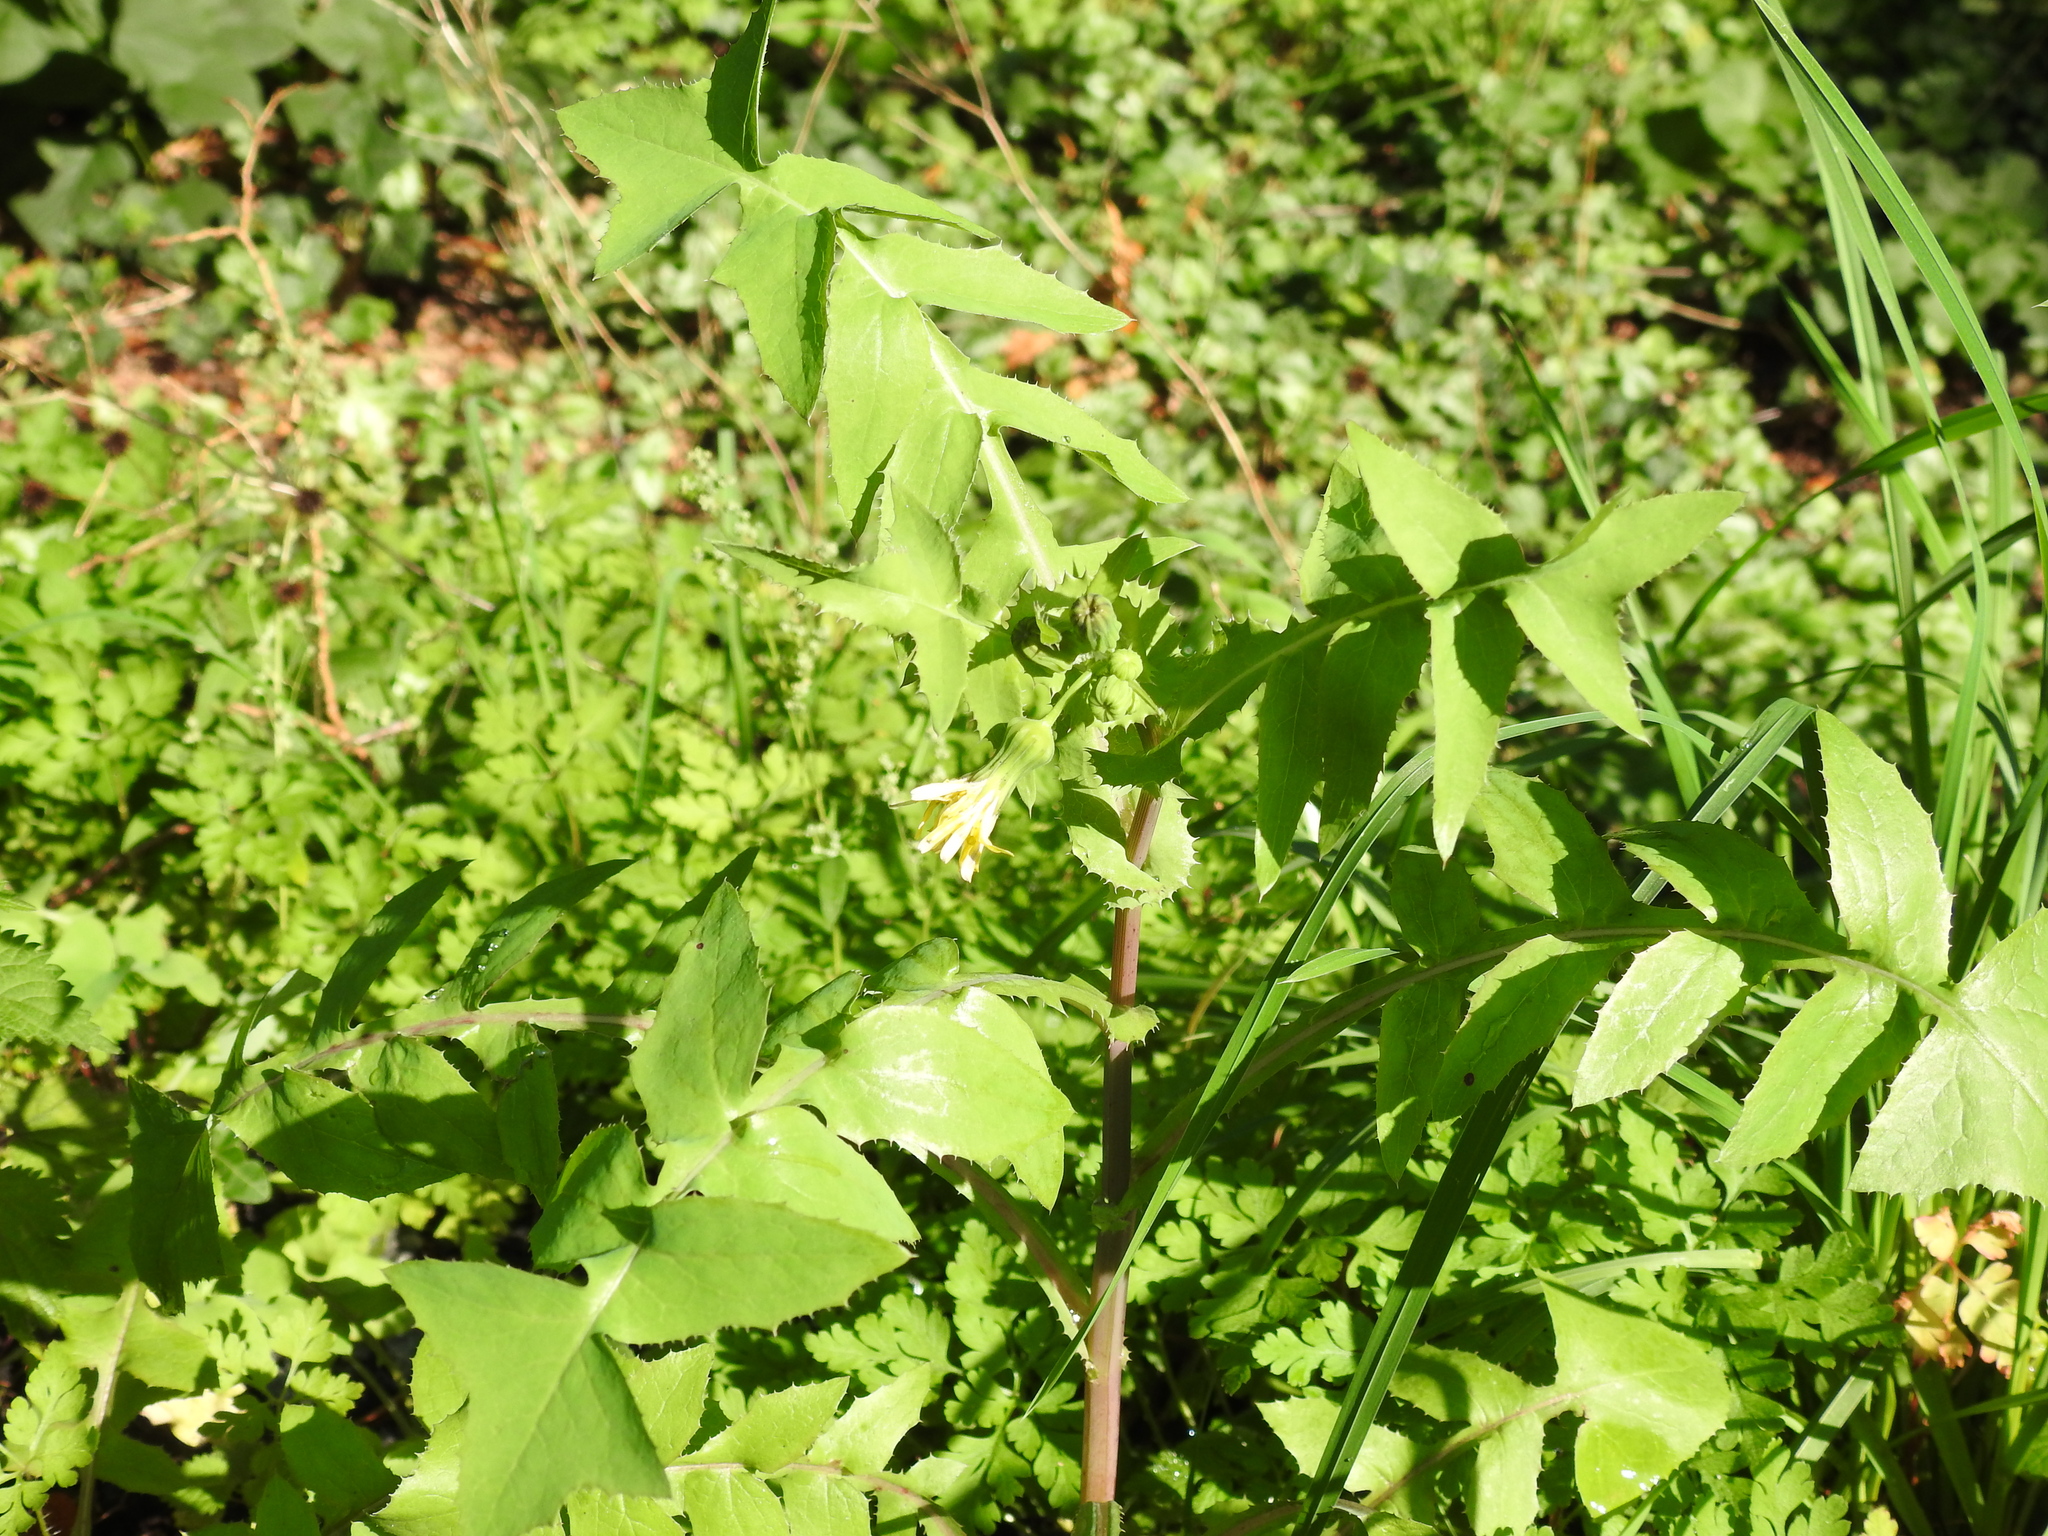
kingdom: Plantae
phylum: Tracheophyta
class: Magnoliopsida
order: Asterales
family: Asteraceae
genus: Sonchus
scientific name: Sonchus oleraceus
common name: Common sowthistle
